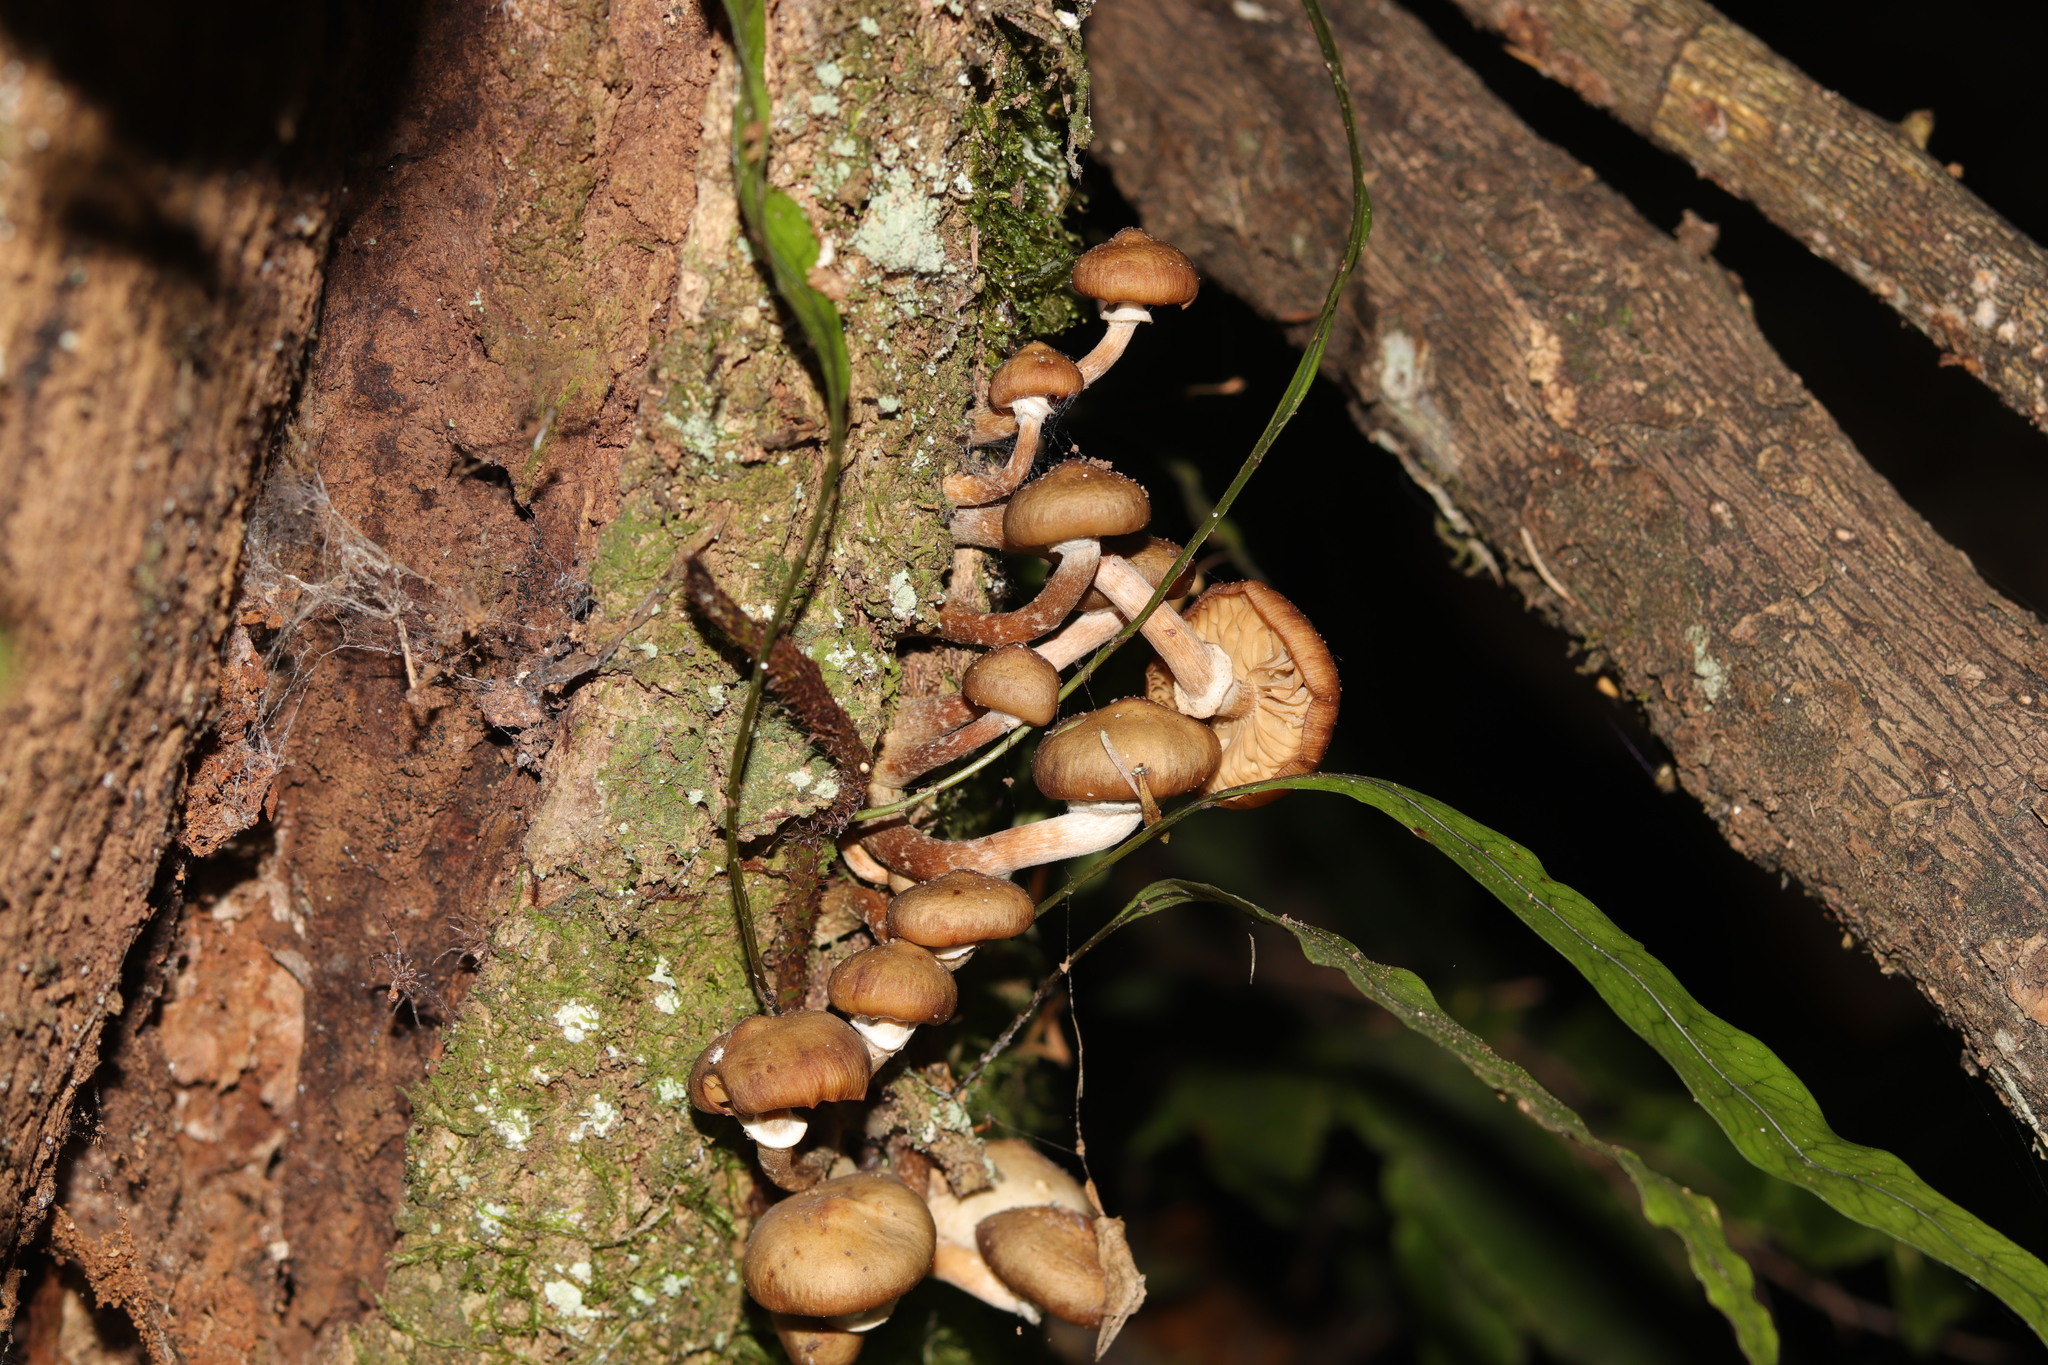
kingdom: Fungi
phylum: Basidiomycota
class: Agaricomycetes
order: Agaricales
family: Physalacriaceae
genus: Armillaria
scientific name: Armillaria novae-zelandiae
